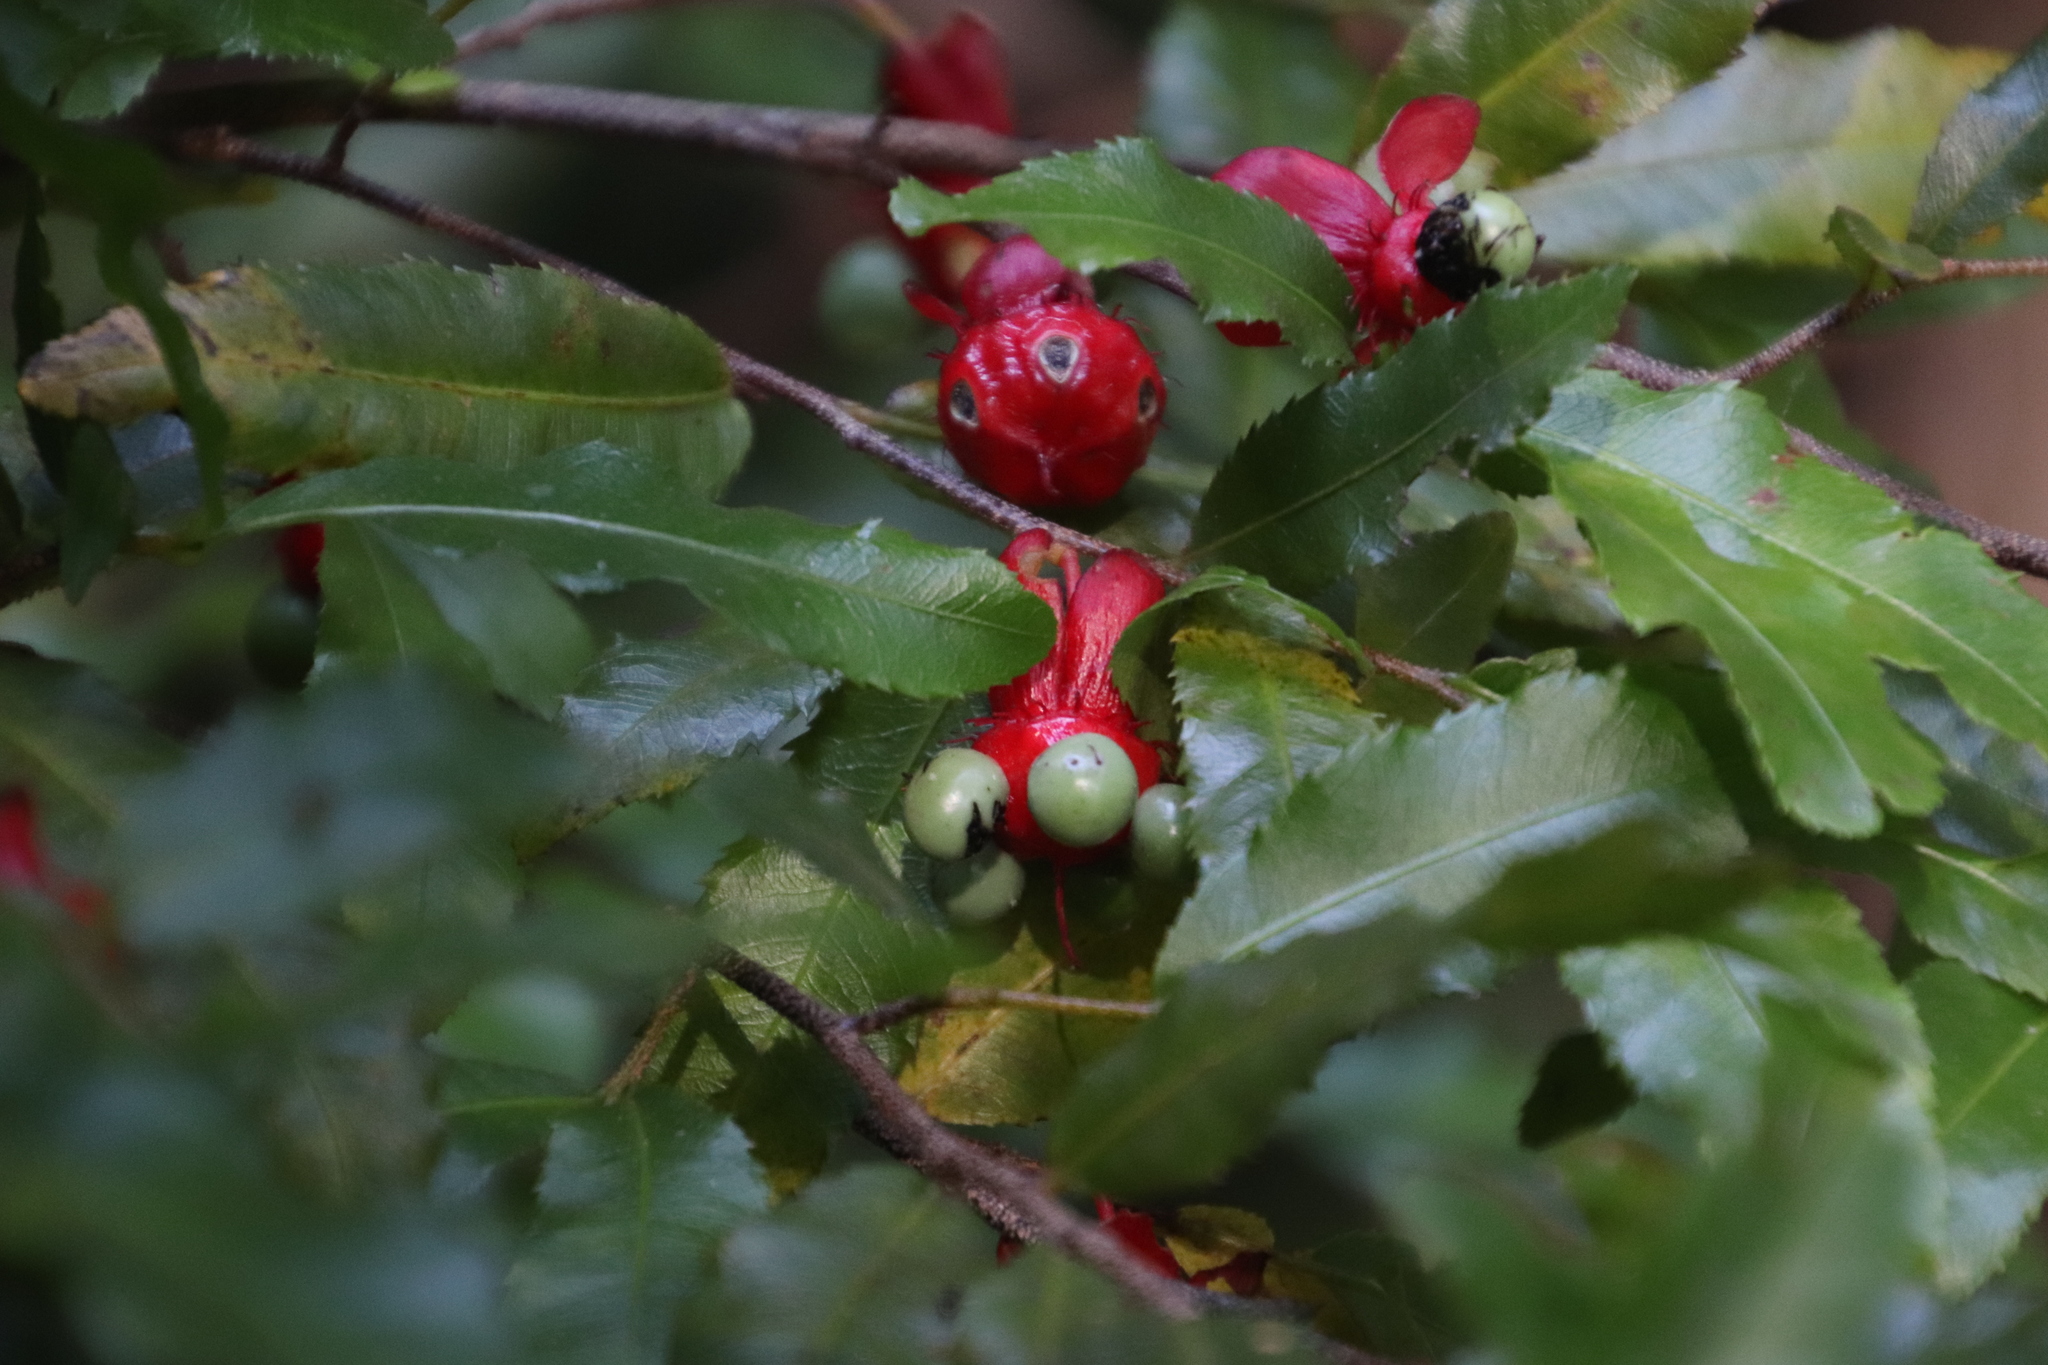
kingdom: Plantae
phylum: Tracheophyta
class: Magnoliopsida
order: Malpighiales
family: Ochnaceae
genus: Ochna
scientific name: Ochna serrulata
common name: Mickey mouse plant
